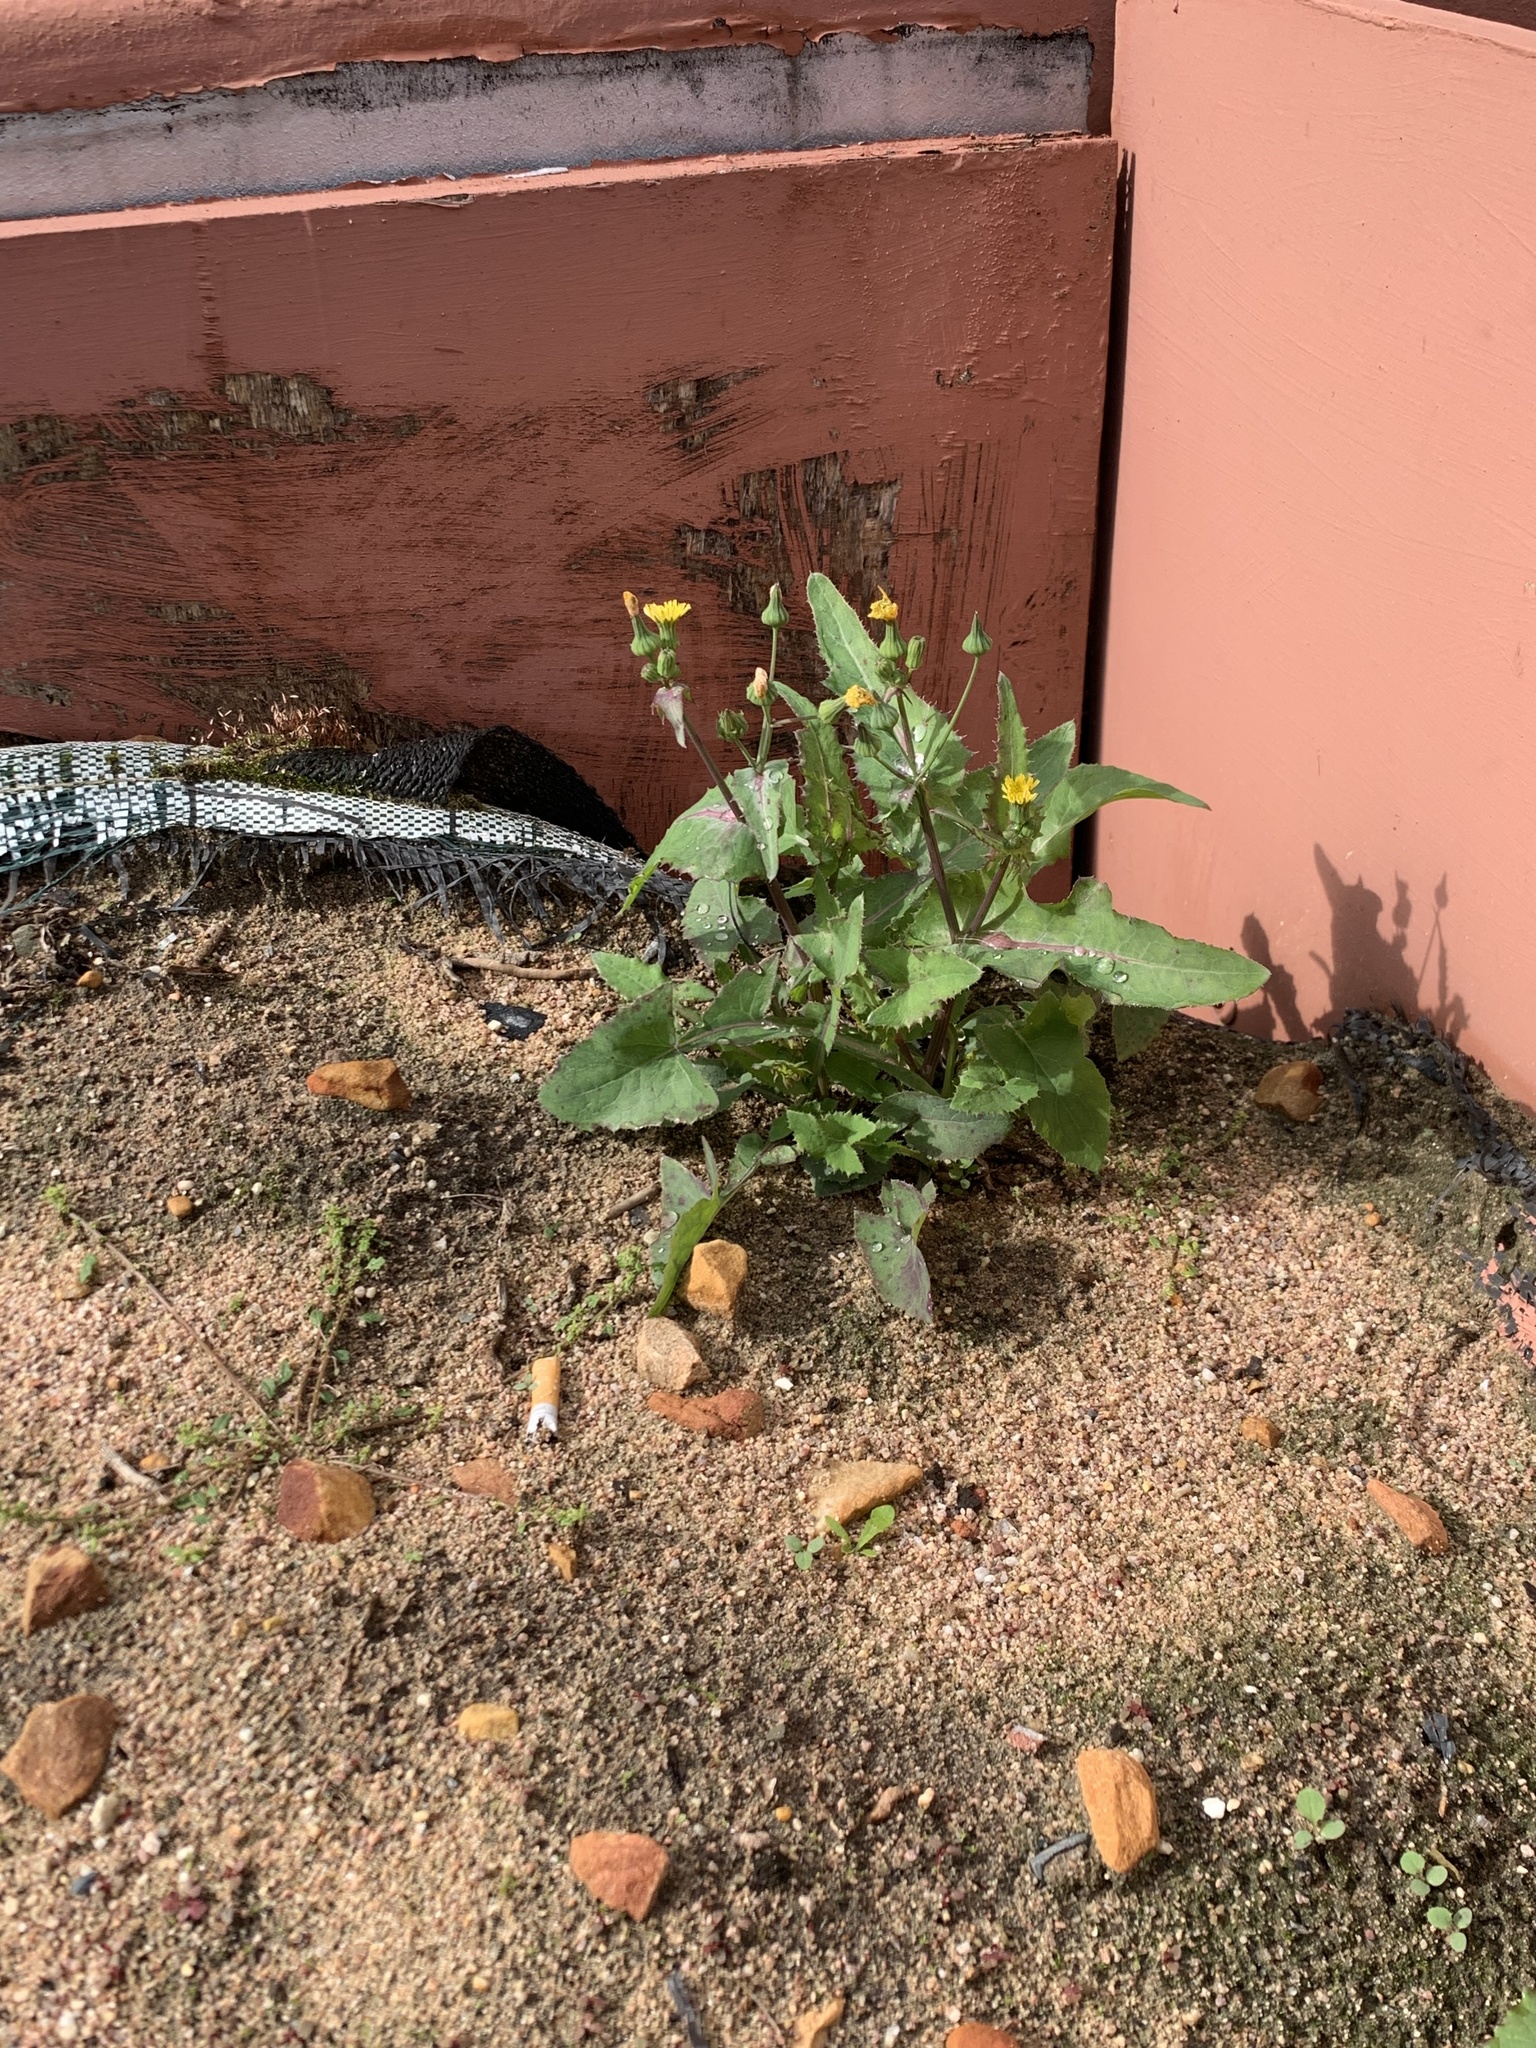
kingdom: Plantae
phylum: Tracheophyta
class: Magnoliopsida
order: Asterales
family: Asteraceae
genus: Sonchus
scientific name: Sonchus oleraceus
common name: Common sowthistle
